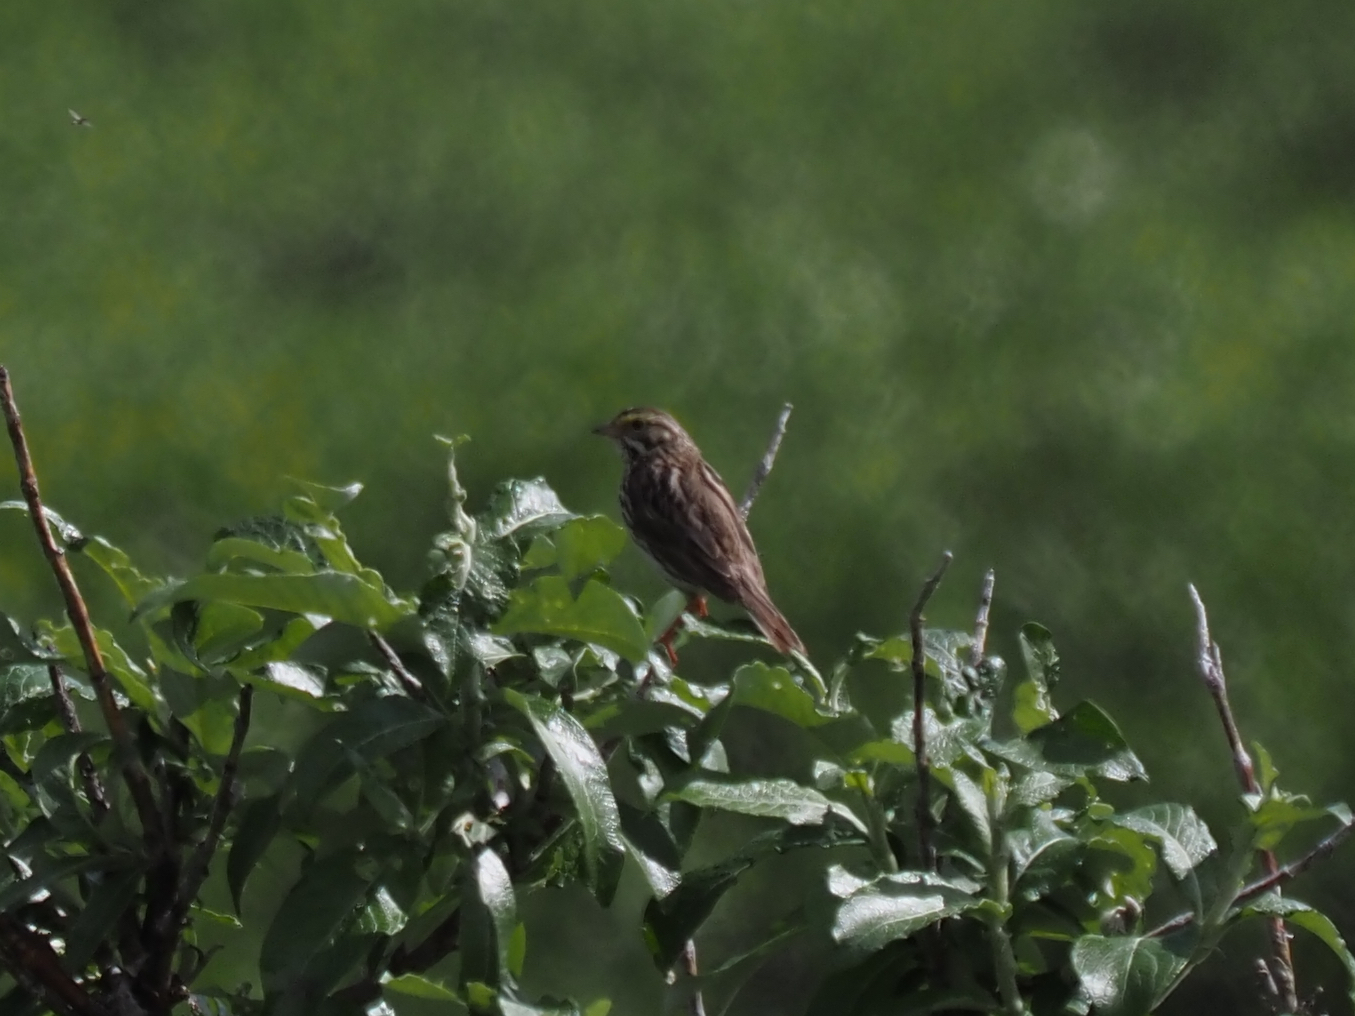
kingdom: Animalia
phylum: Chordata
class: Aves
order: Passeriformes
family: Passerellidae
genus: Passerculus
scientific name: Passerculus sandwichensis
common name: Savannah sparrow
